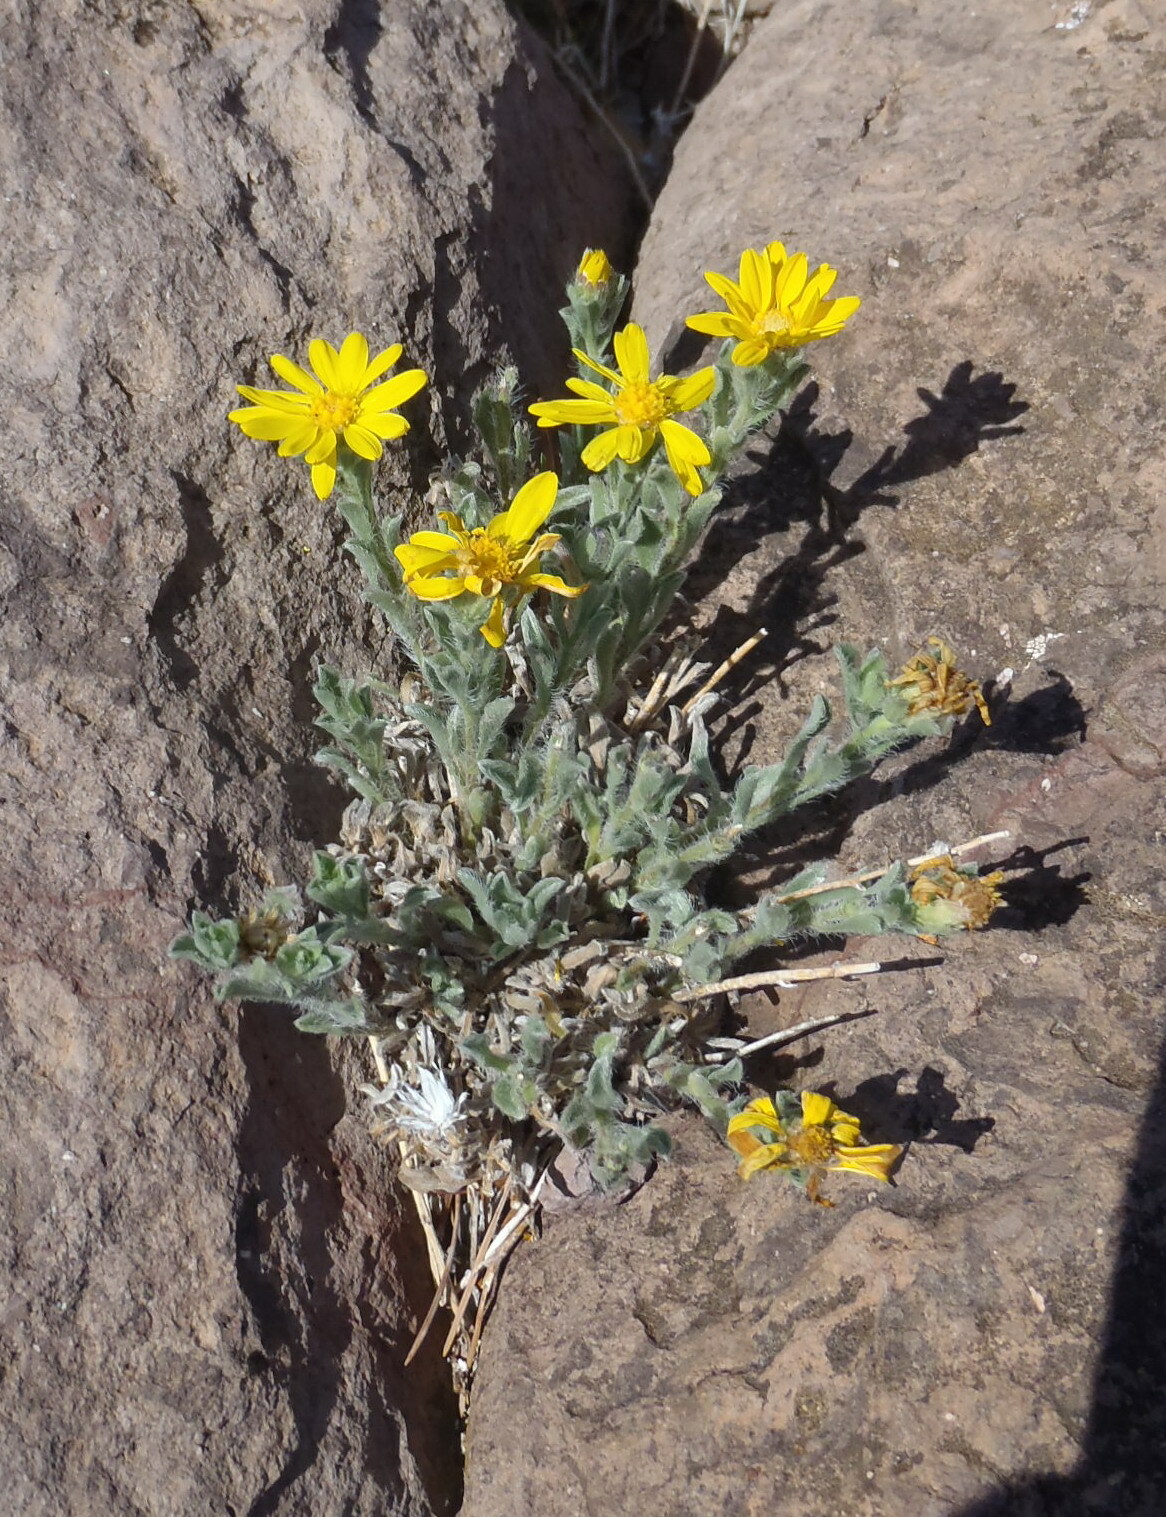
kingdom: Plantae
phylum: Tracheophyta
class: Magnoliopsida
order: Asterales
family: Asteraceae
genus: Heterotheca
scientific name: Heterotheca fulcrata
